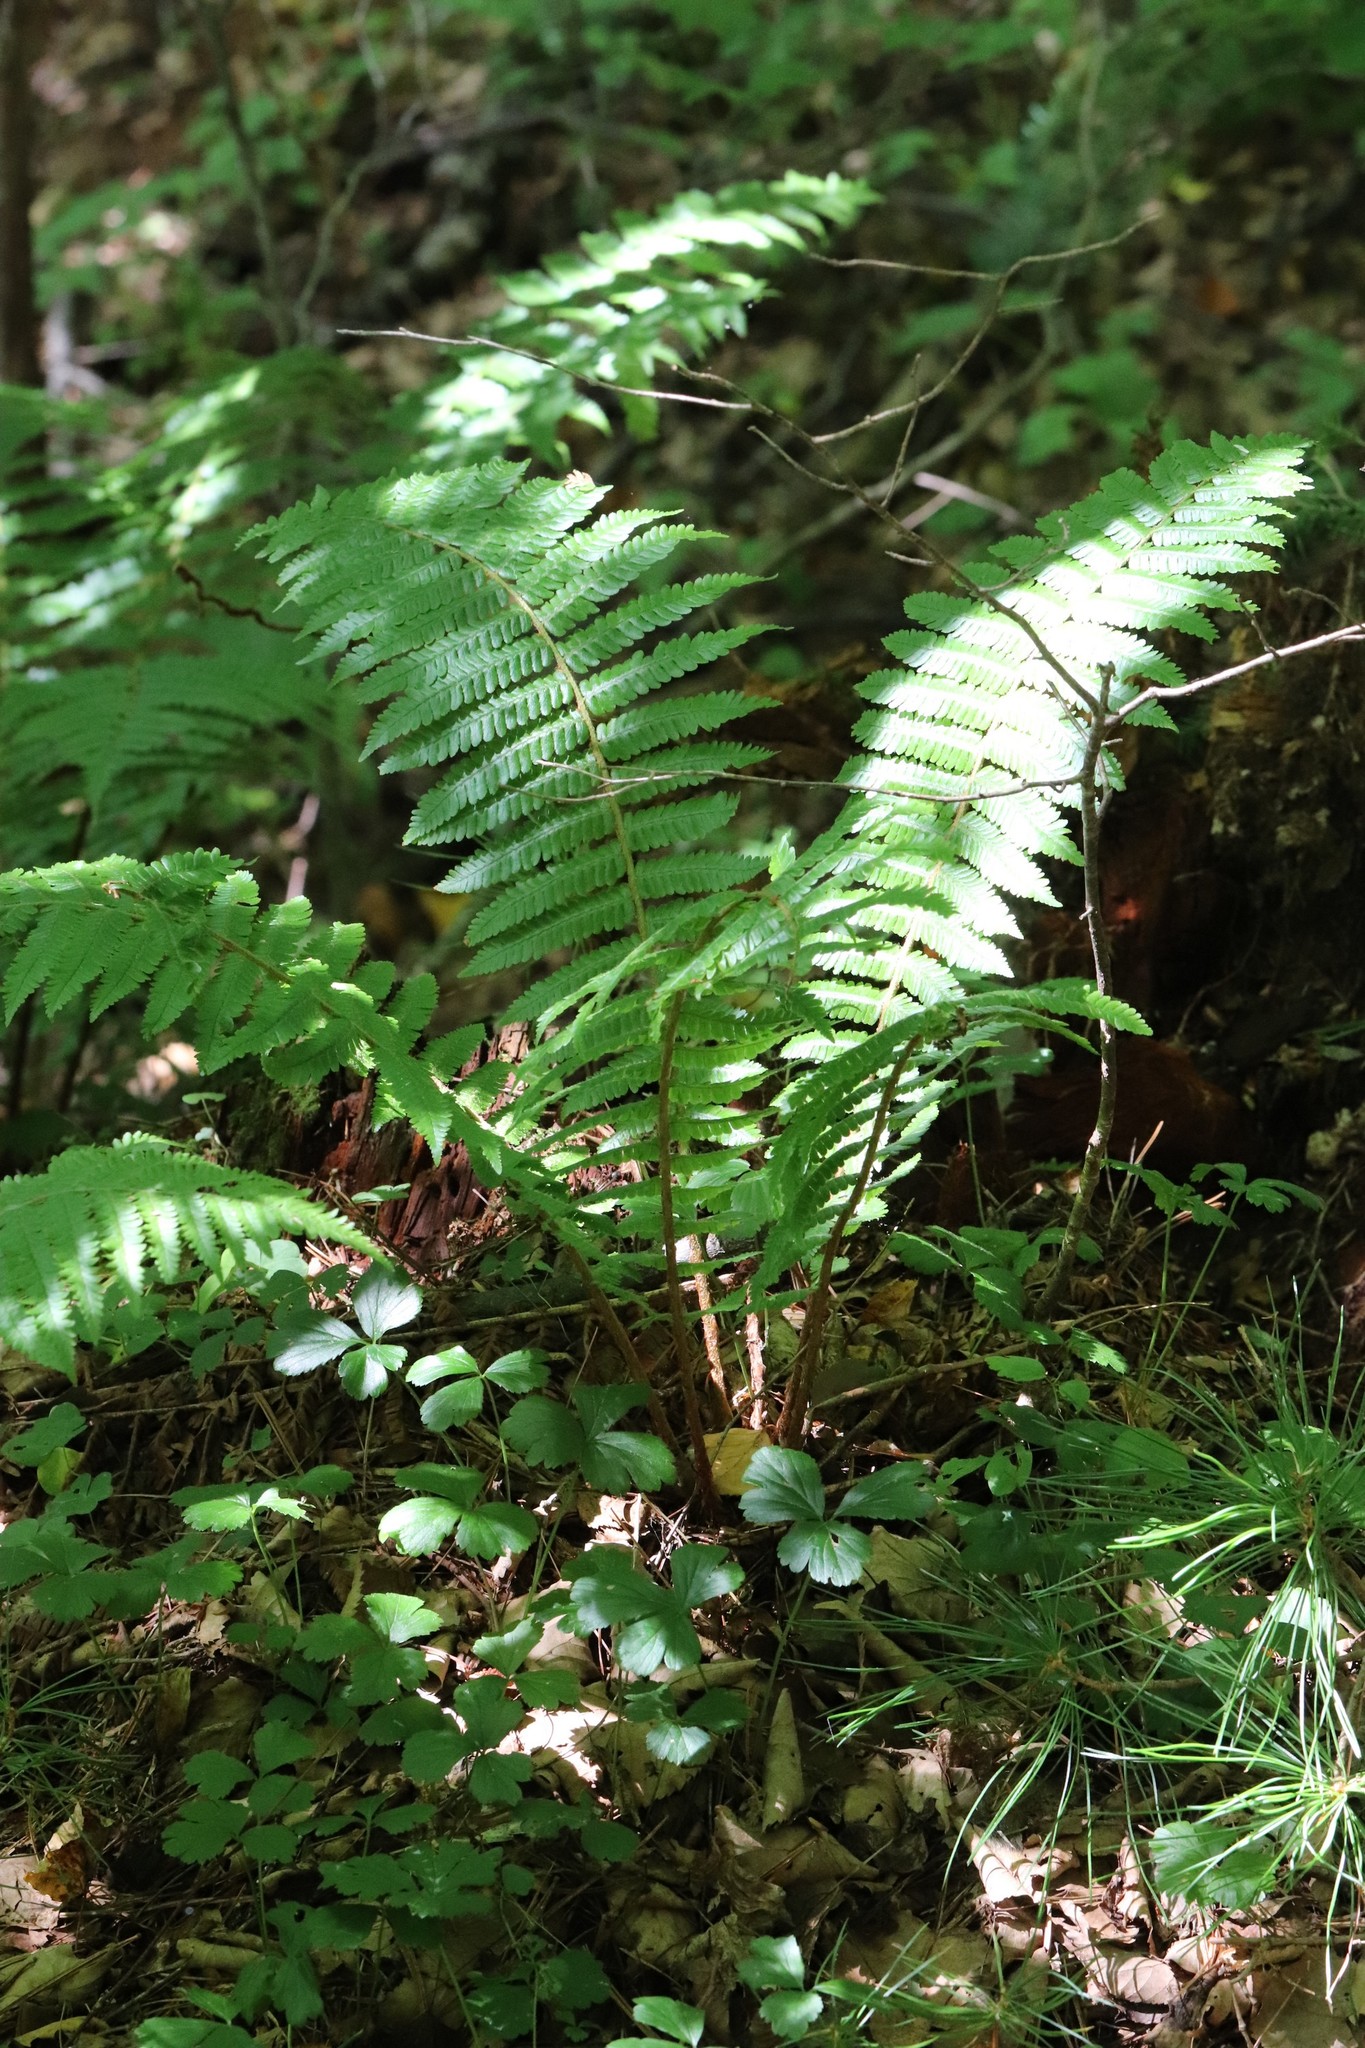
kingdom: Plantae
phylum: Tracheophyta
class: Polypodiopsida
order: Polypodiales
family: Dryopteridaceae
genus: Dryopteris
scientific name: Dryopteris crassirhizoma
